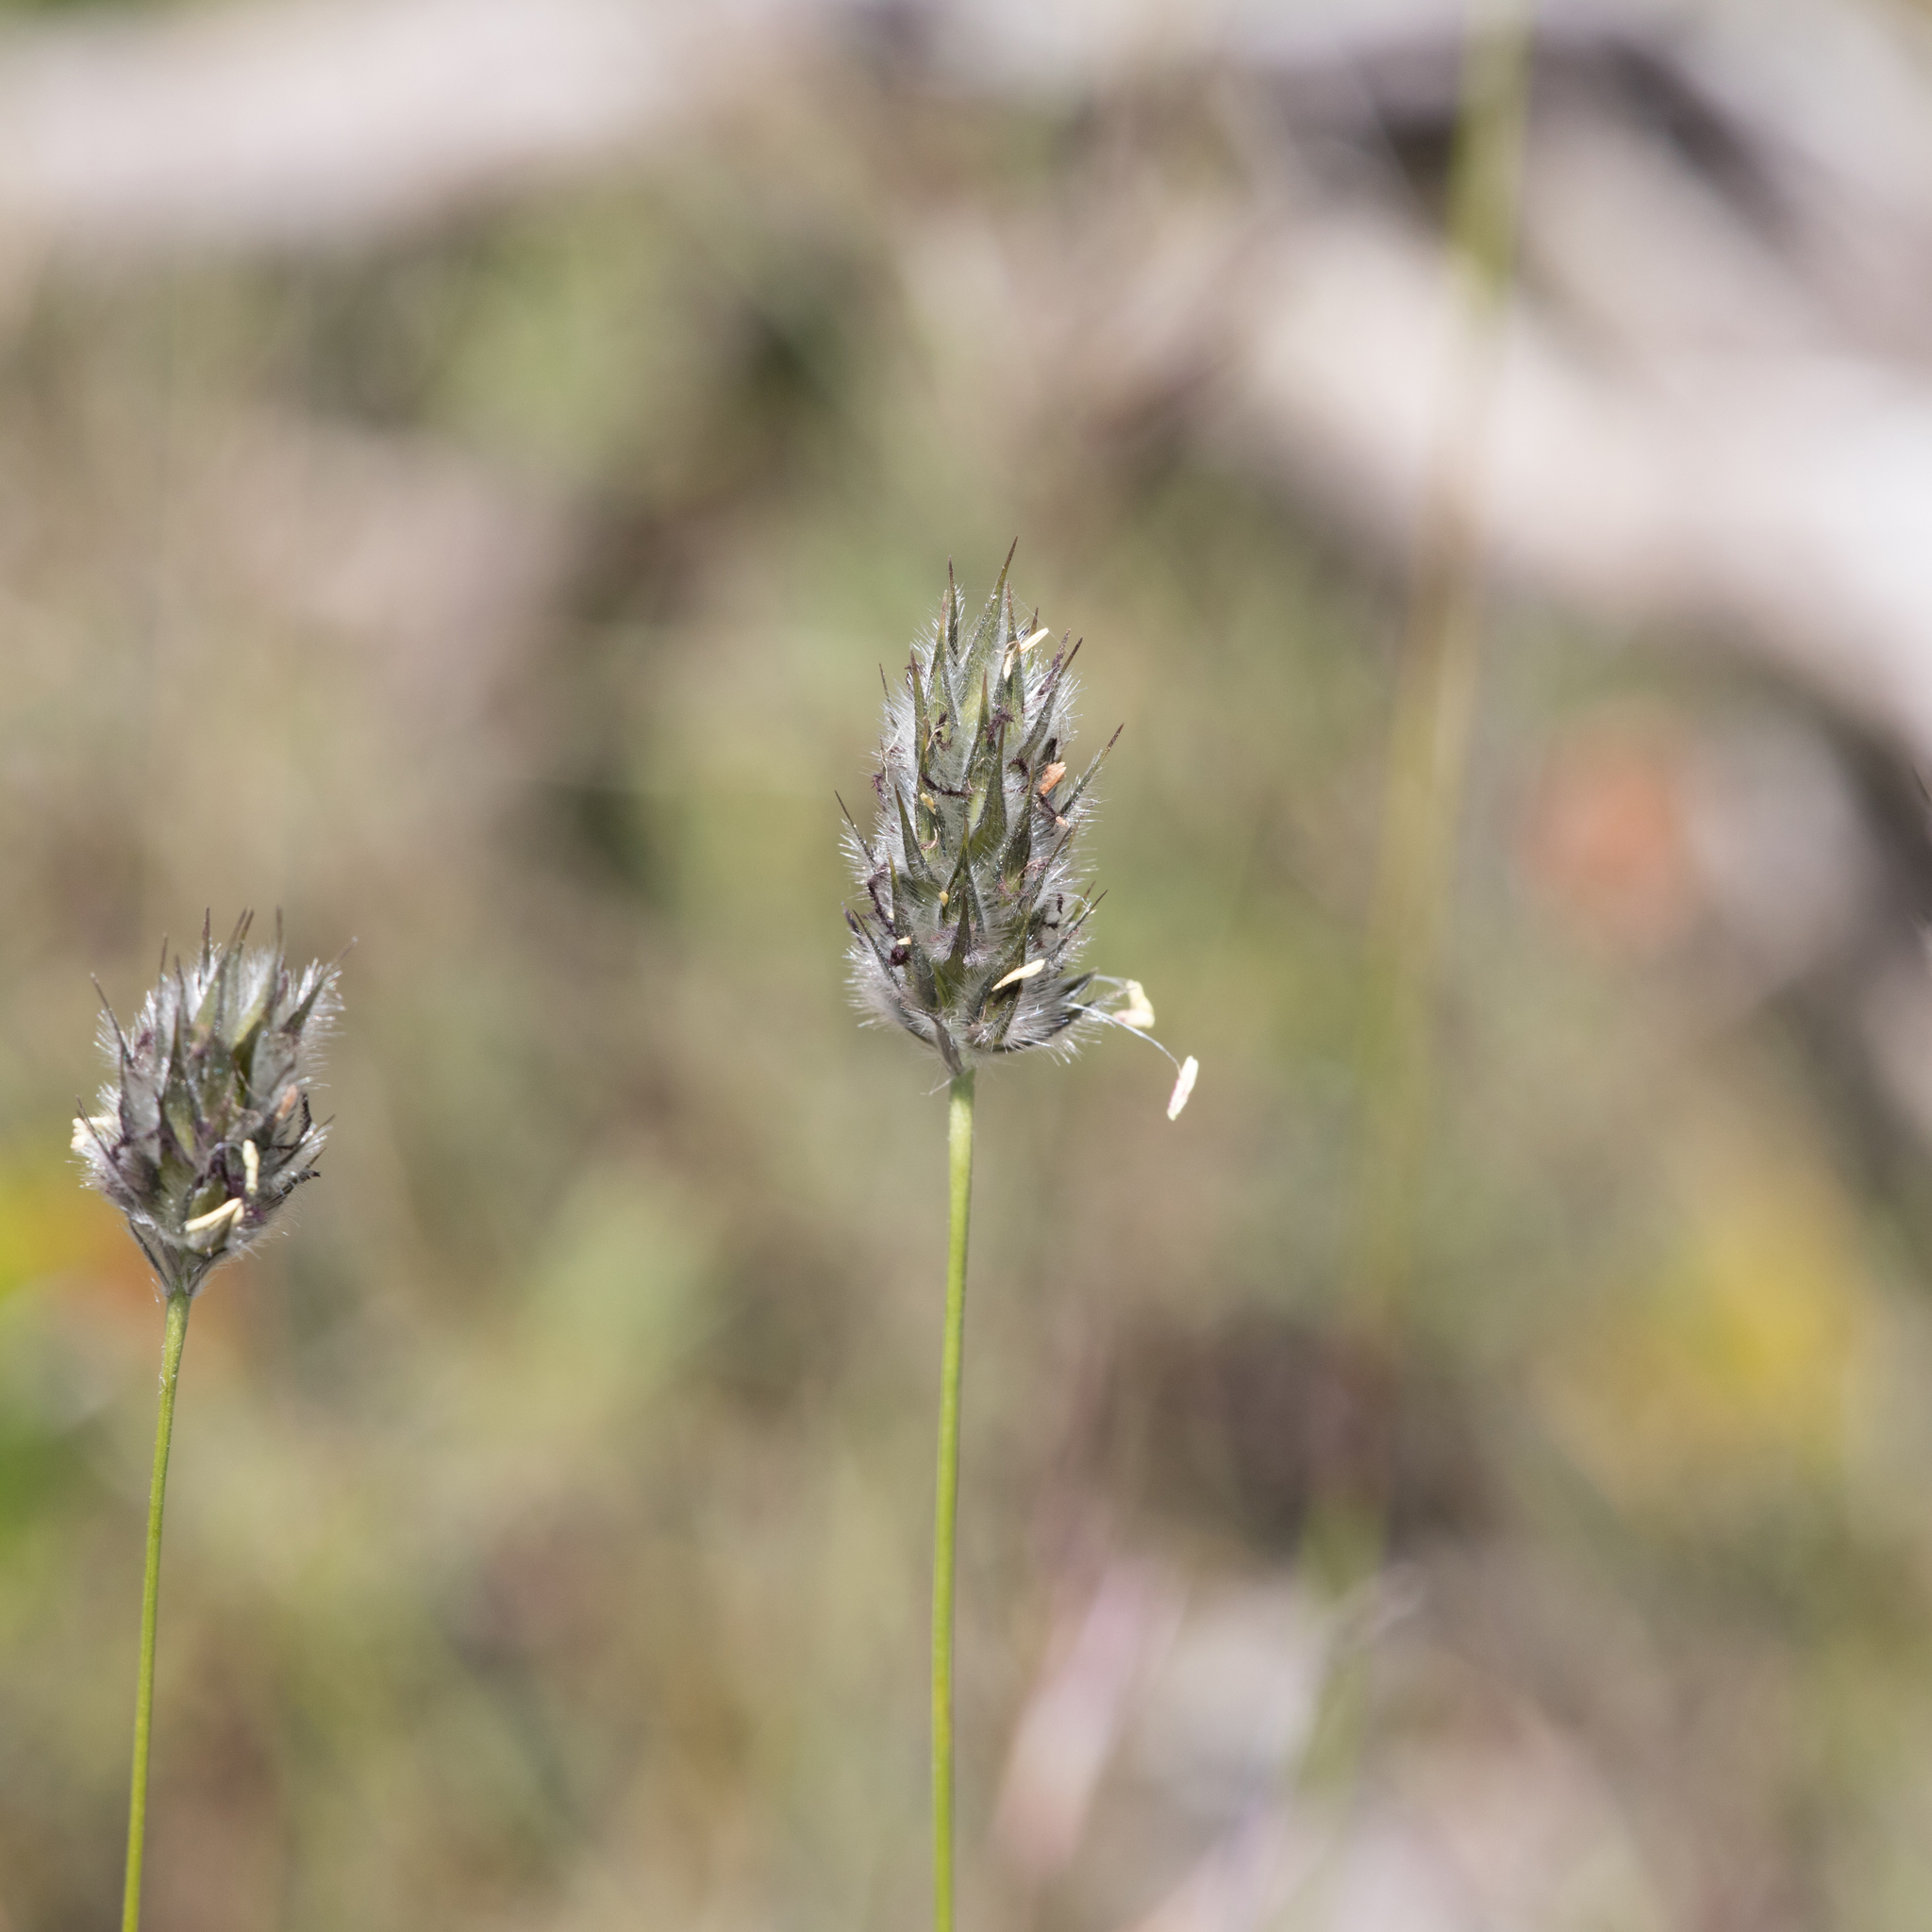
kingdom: Plantae
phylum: Tracheophyta
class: Liliopsida
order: Poales
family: Poaceae
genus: Neurachne
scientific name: Neurachne alopecuroidea
